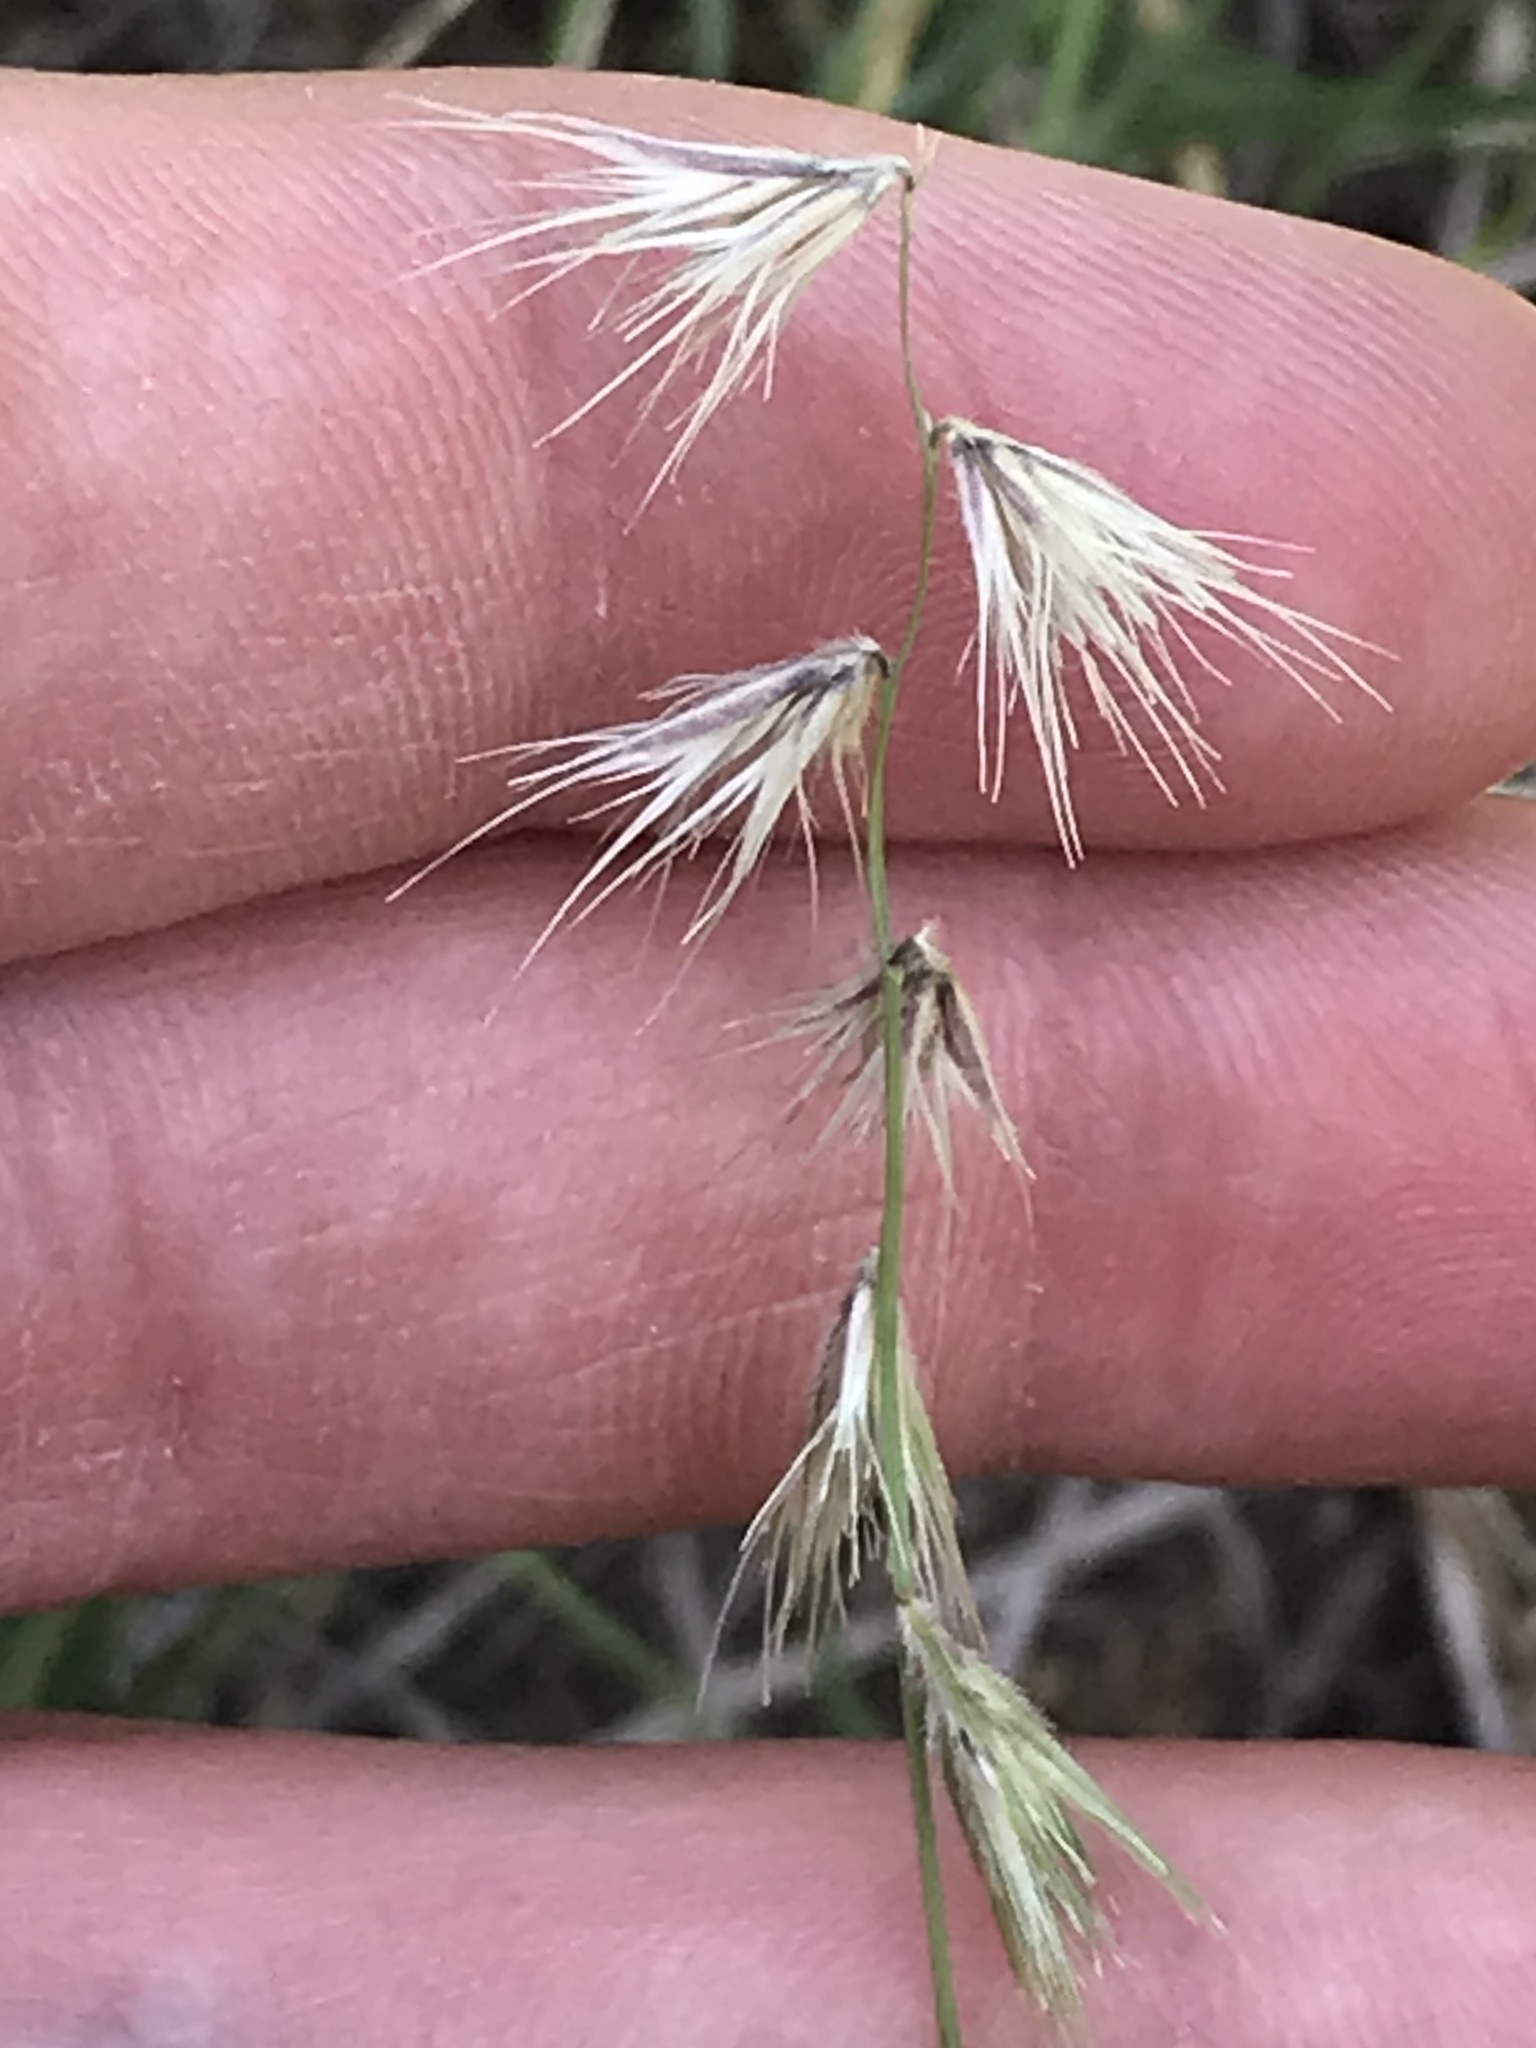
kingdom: Plantae
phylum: Tracheophyta
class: Liliopsida
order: Poales
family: Poaceae
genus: Bouteloua
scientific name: Bouteloua rigidiseta
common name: Texas grama
